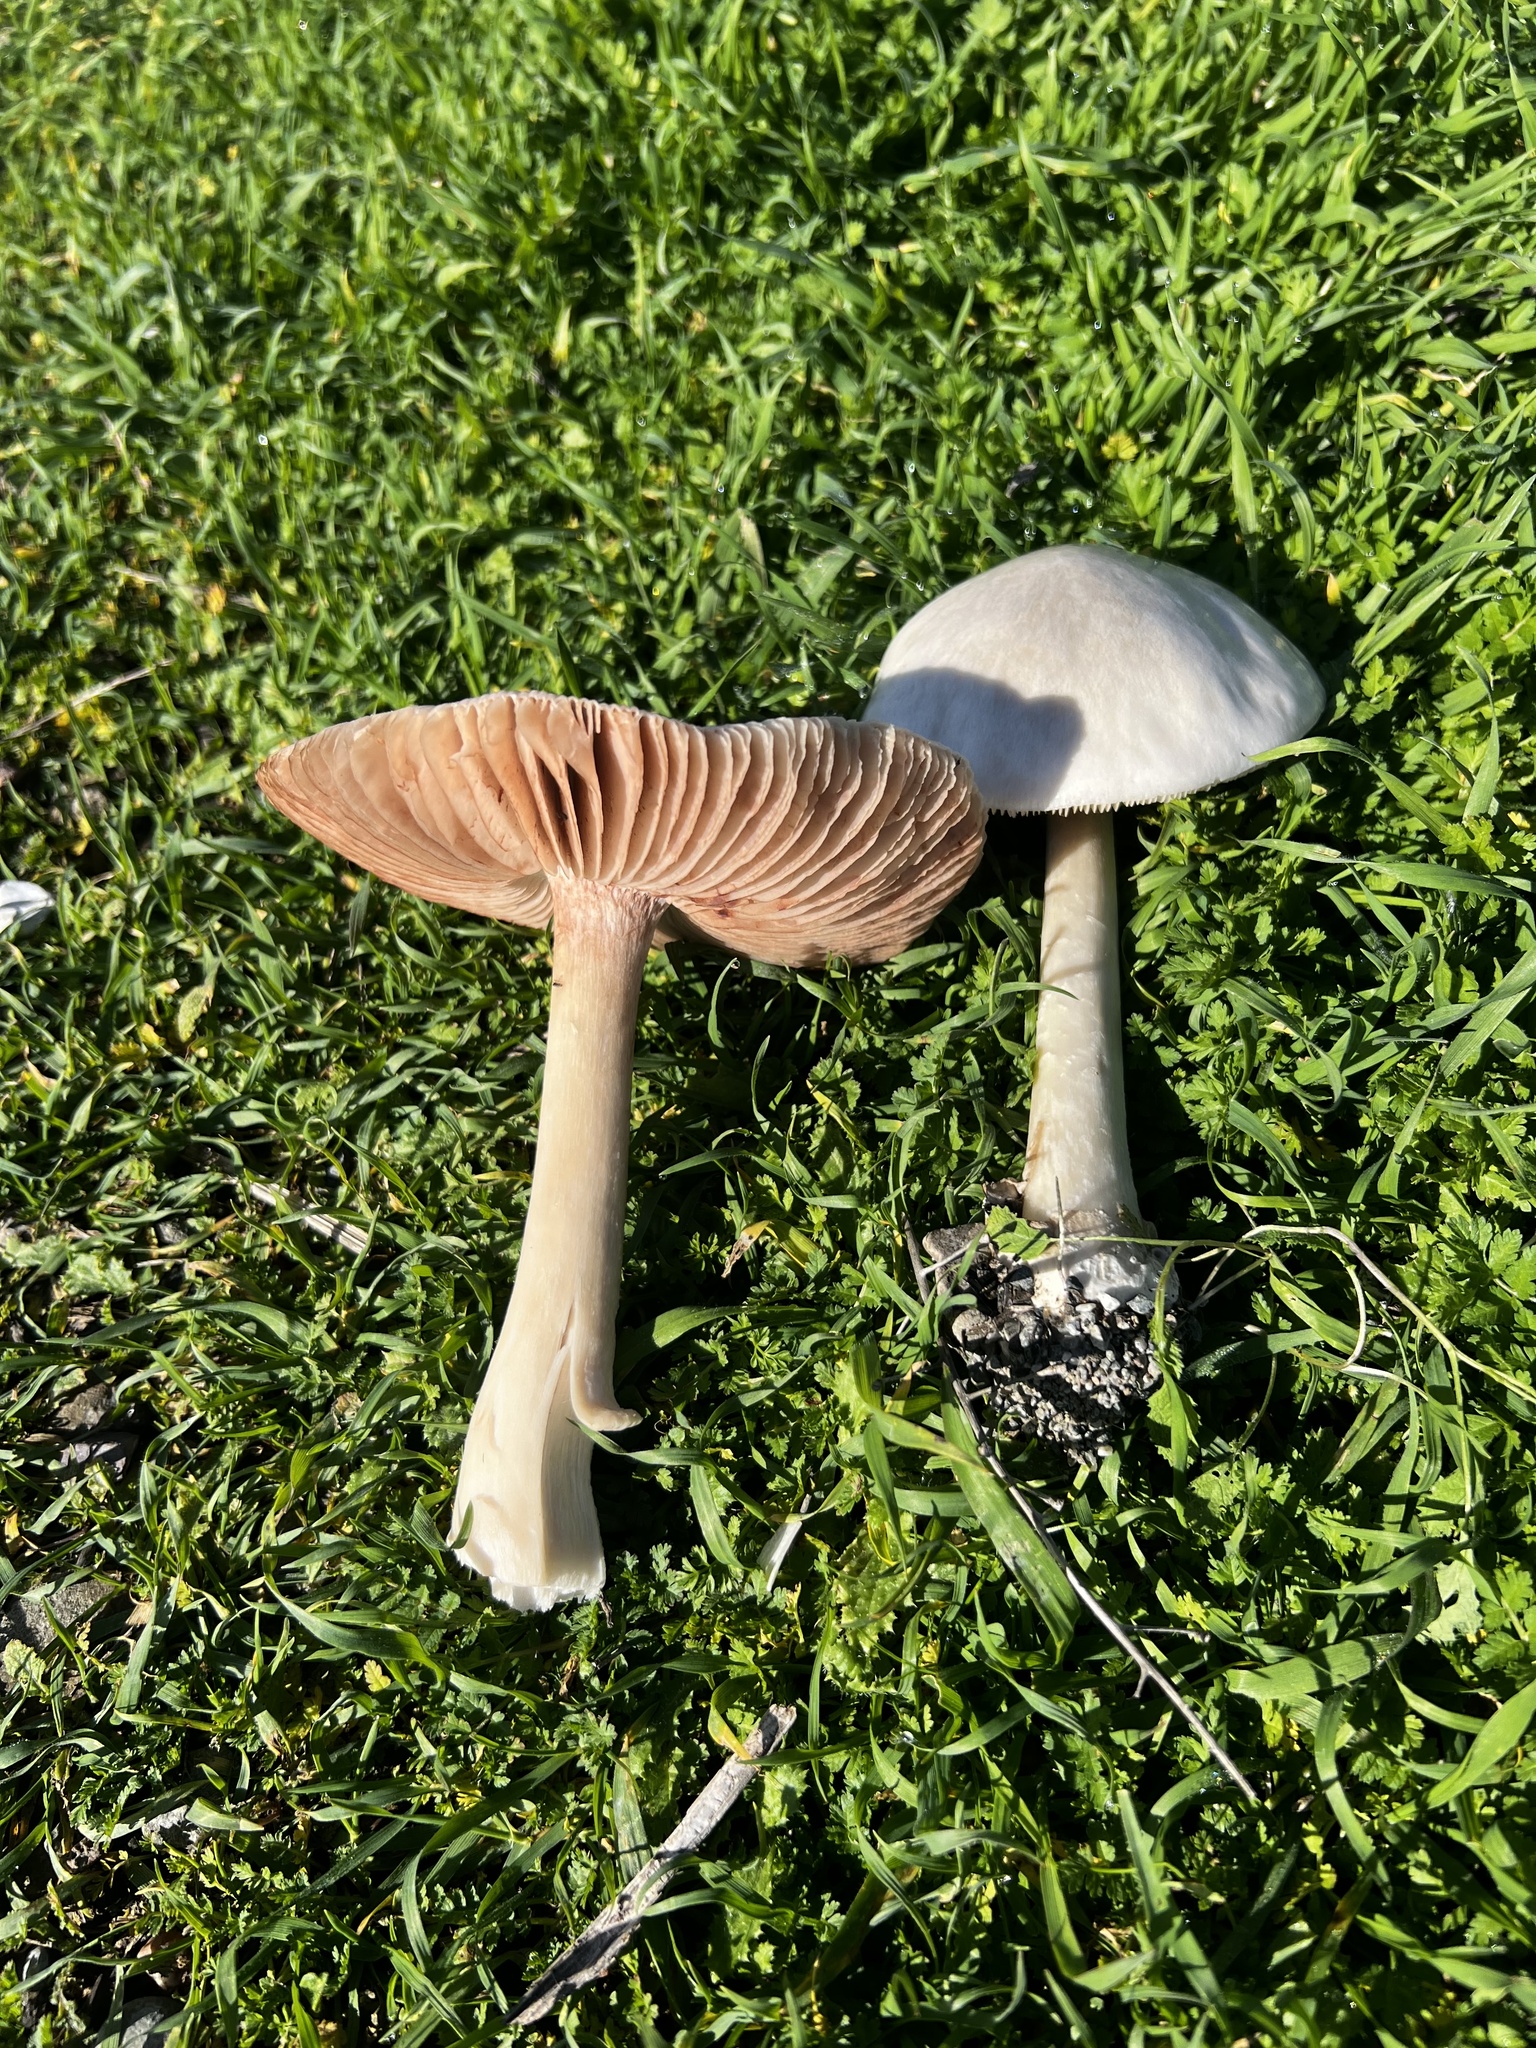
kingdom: Fungi
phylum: Basidiomycota
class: Agaricomycetes
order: Agaricales
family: Pluteaceae
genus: Volvopluteus
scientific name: Volvopluteus gloiocephalus
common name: Stubble rosegill
